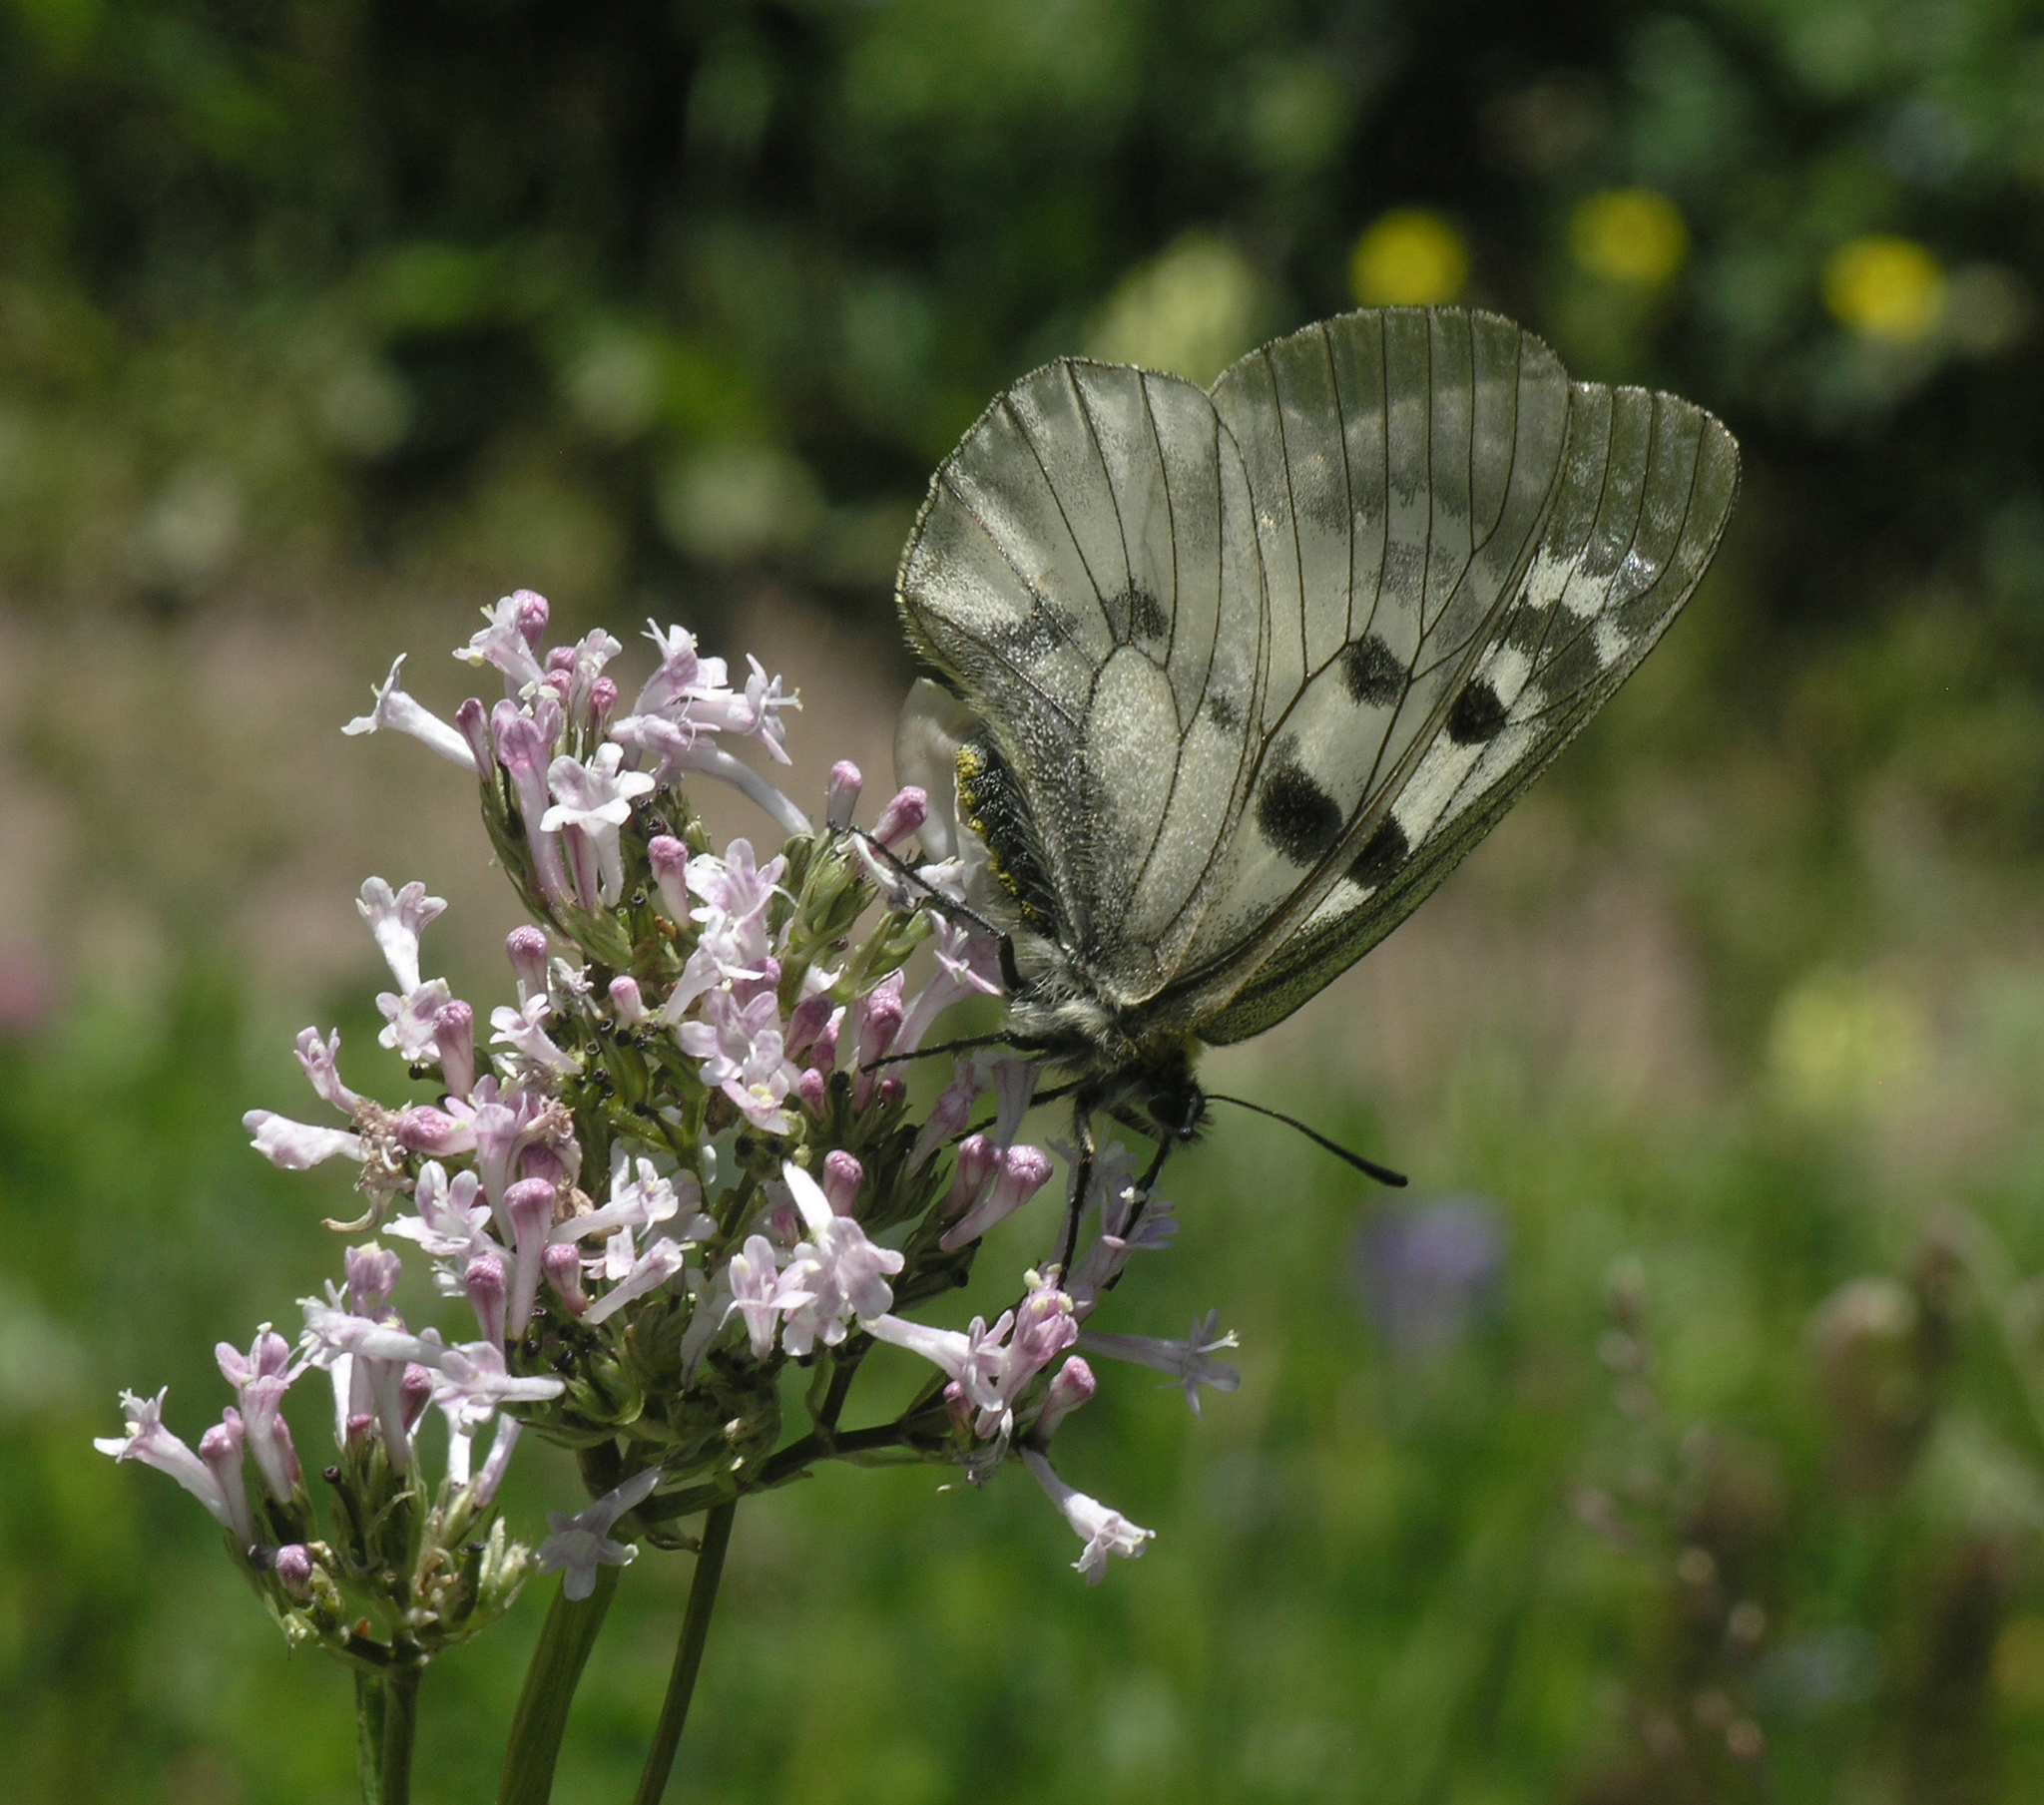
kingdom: Plantae
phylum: Tracheophyta
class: Magnoliopsida
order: Dipsacales
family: Caprifoliaceae
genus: Valeriana
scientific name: Valeriana turkestanica
